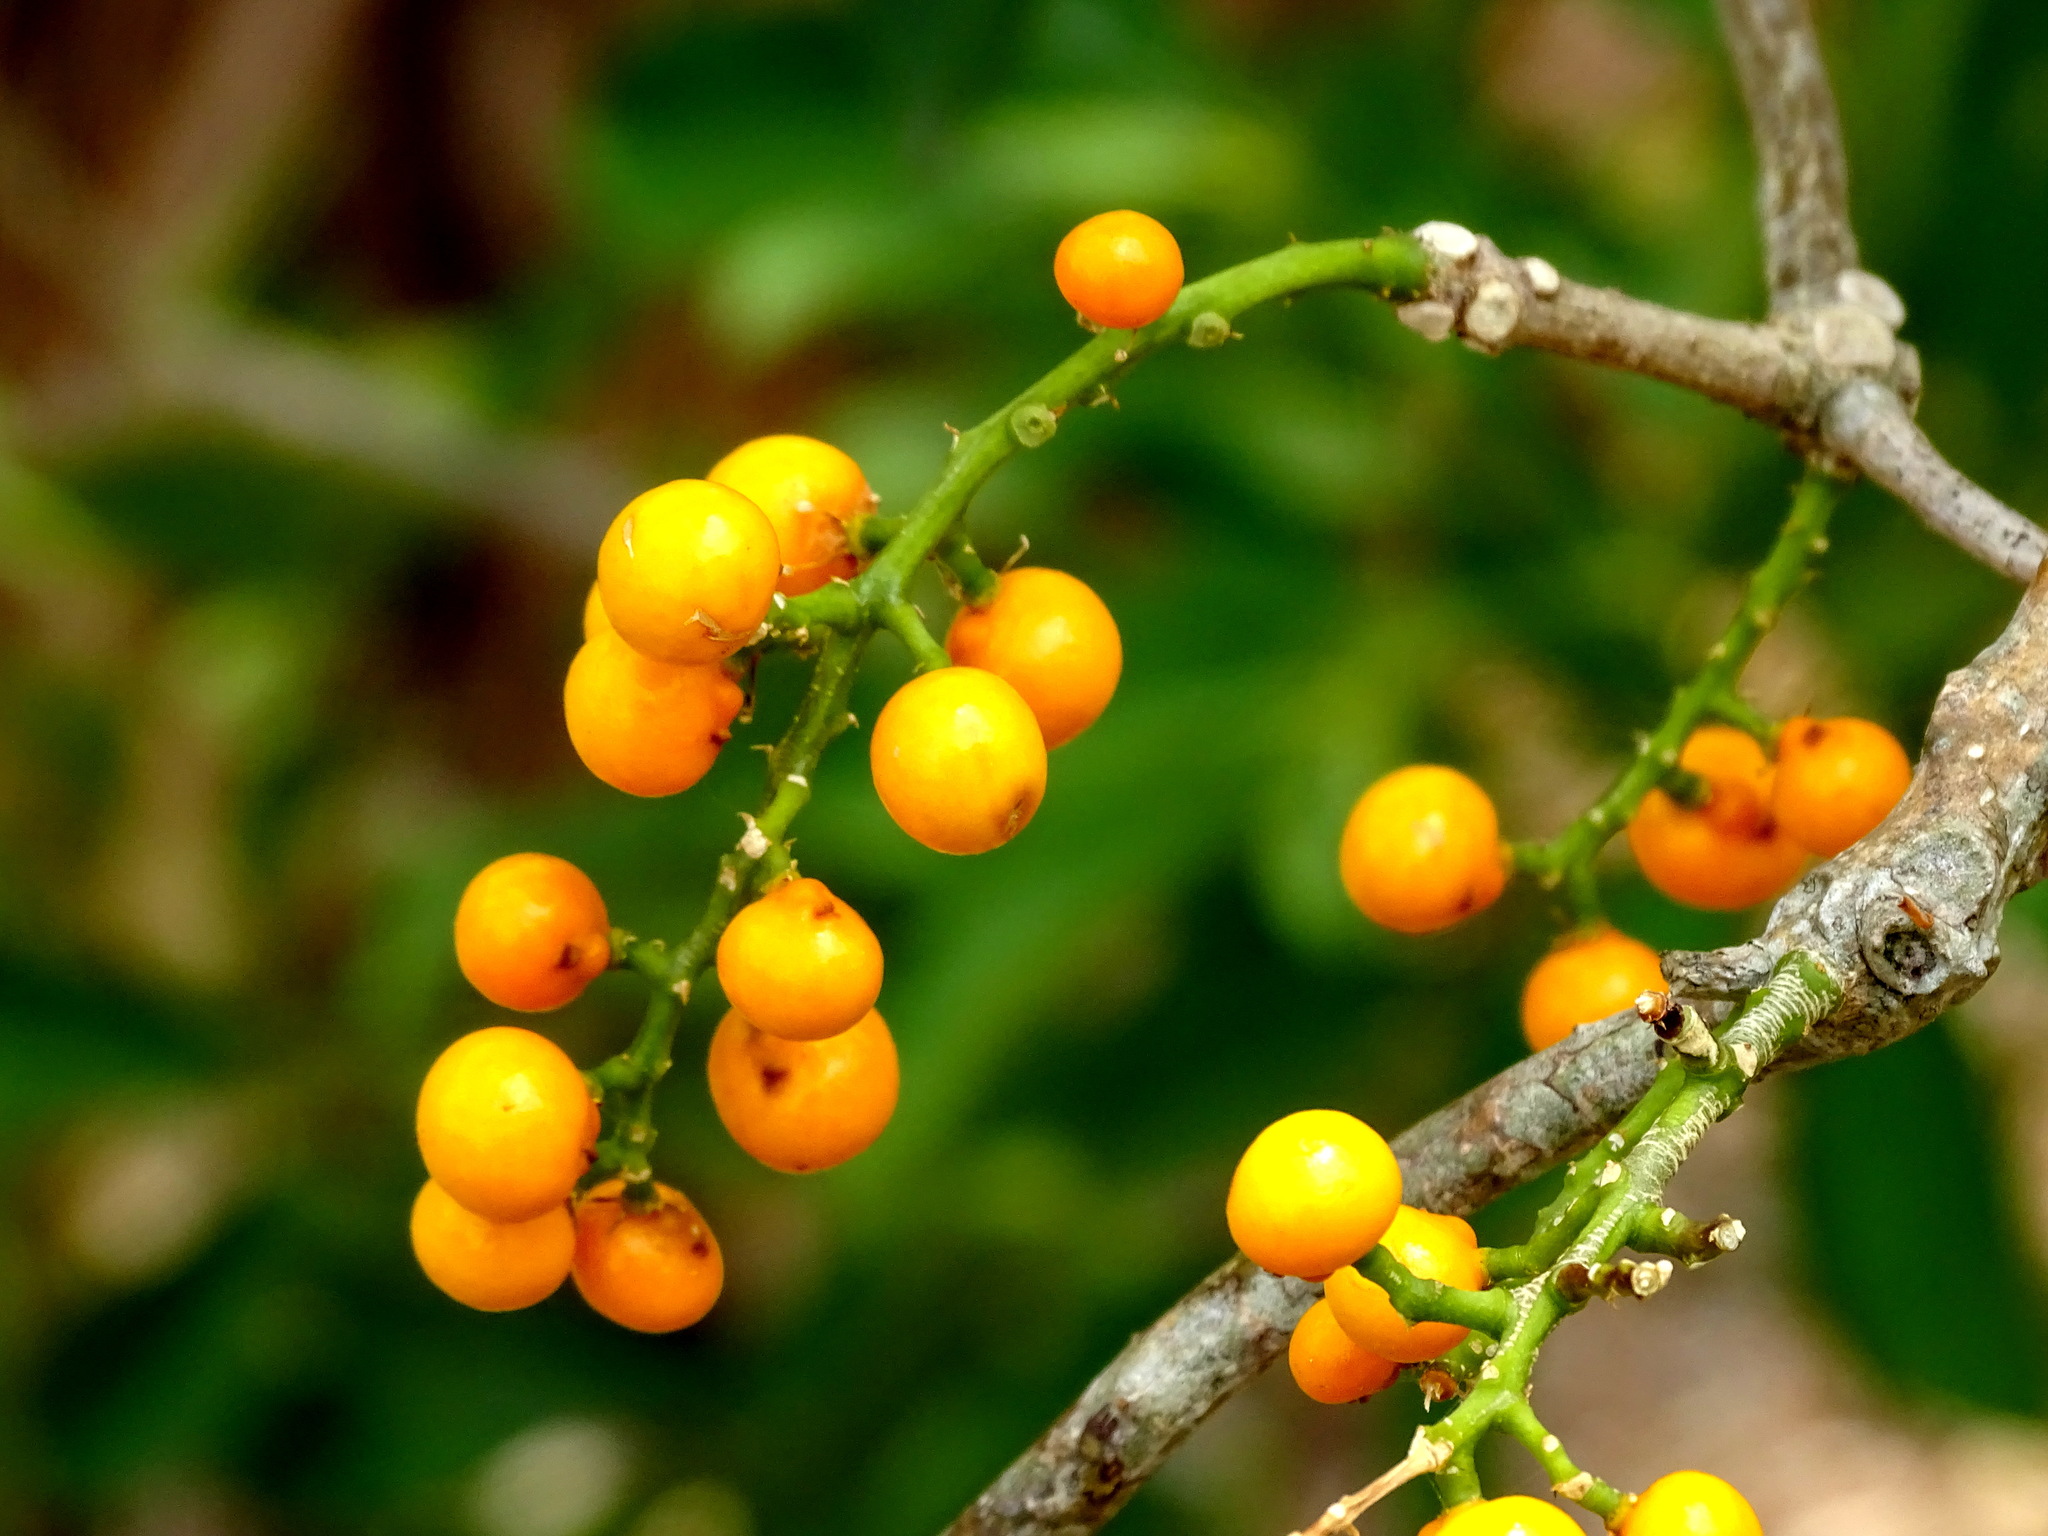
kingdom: Plantae
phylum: Tracheophyta
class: Magnoliopsida
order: Brassicales
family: Stixaceae
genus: Forchhammeria
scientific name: Forchhammeria trifoliata
